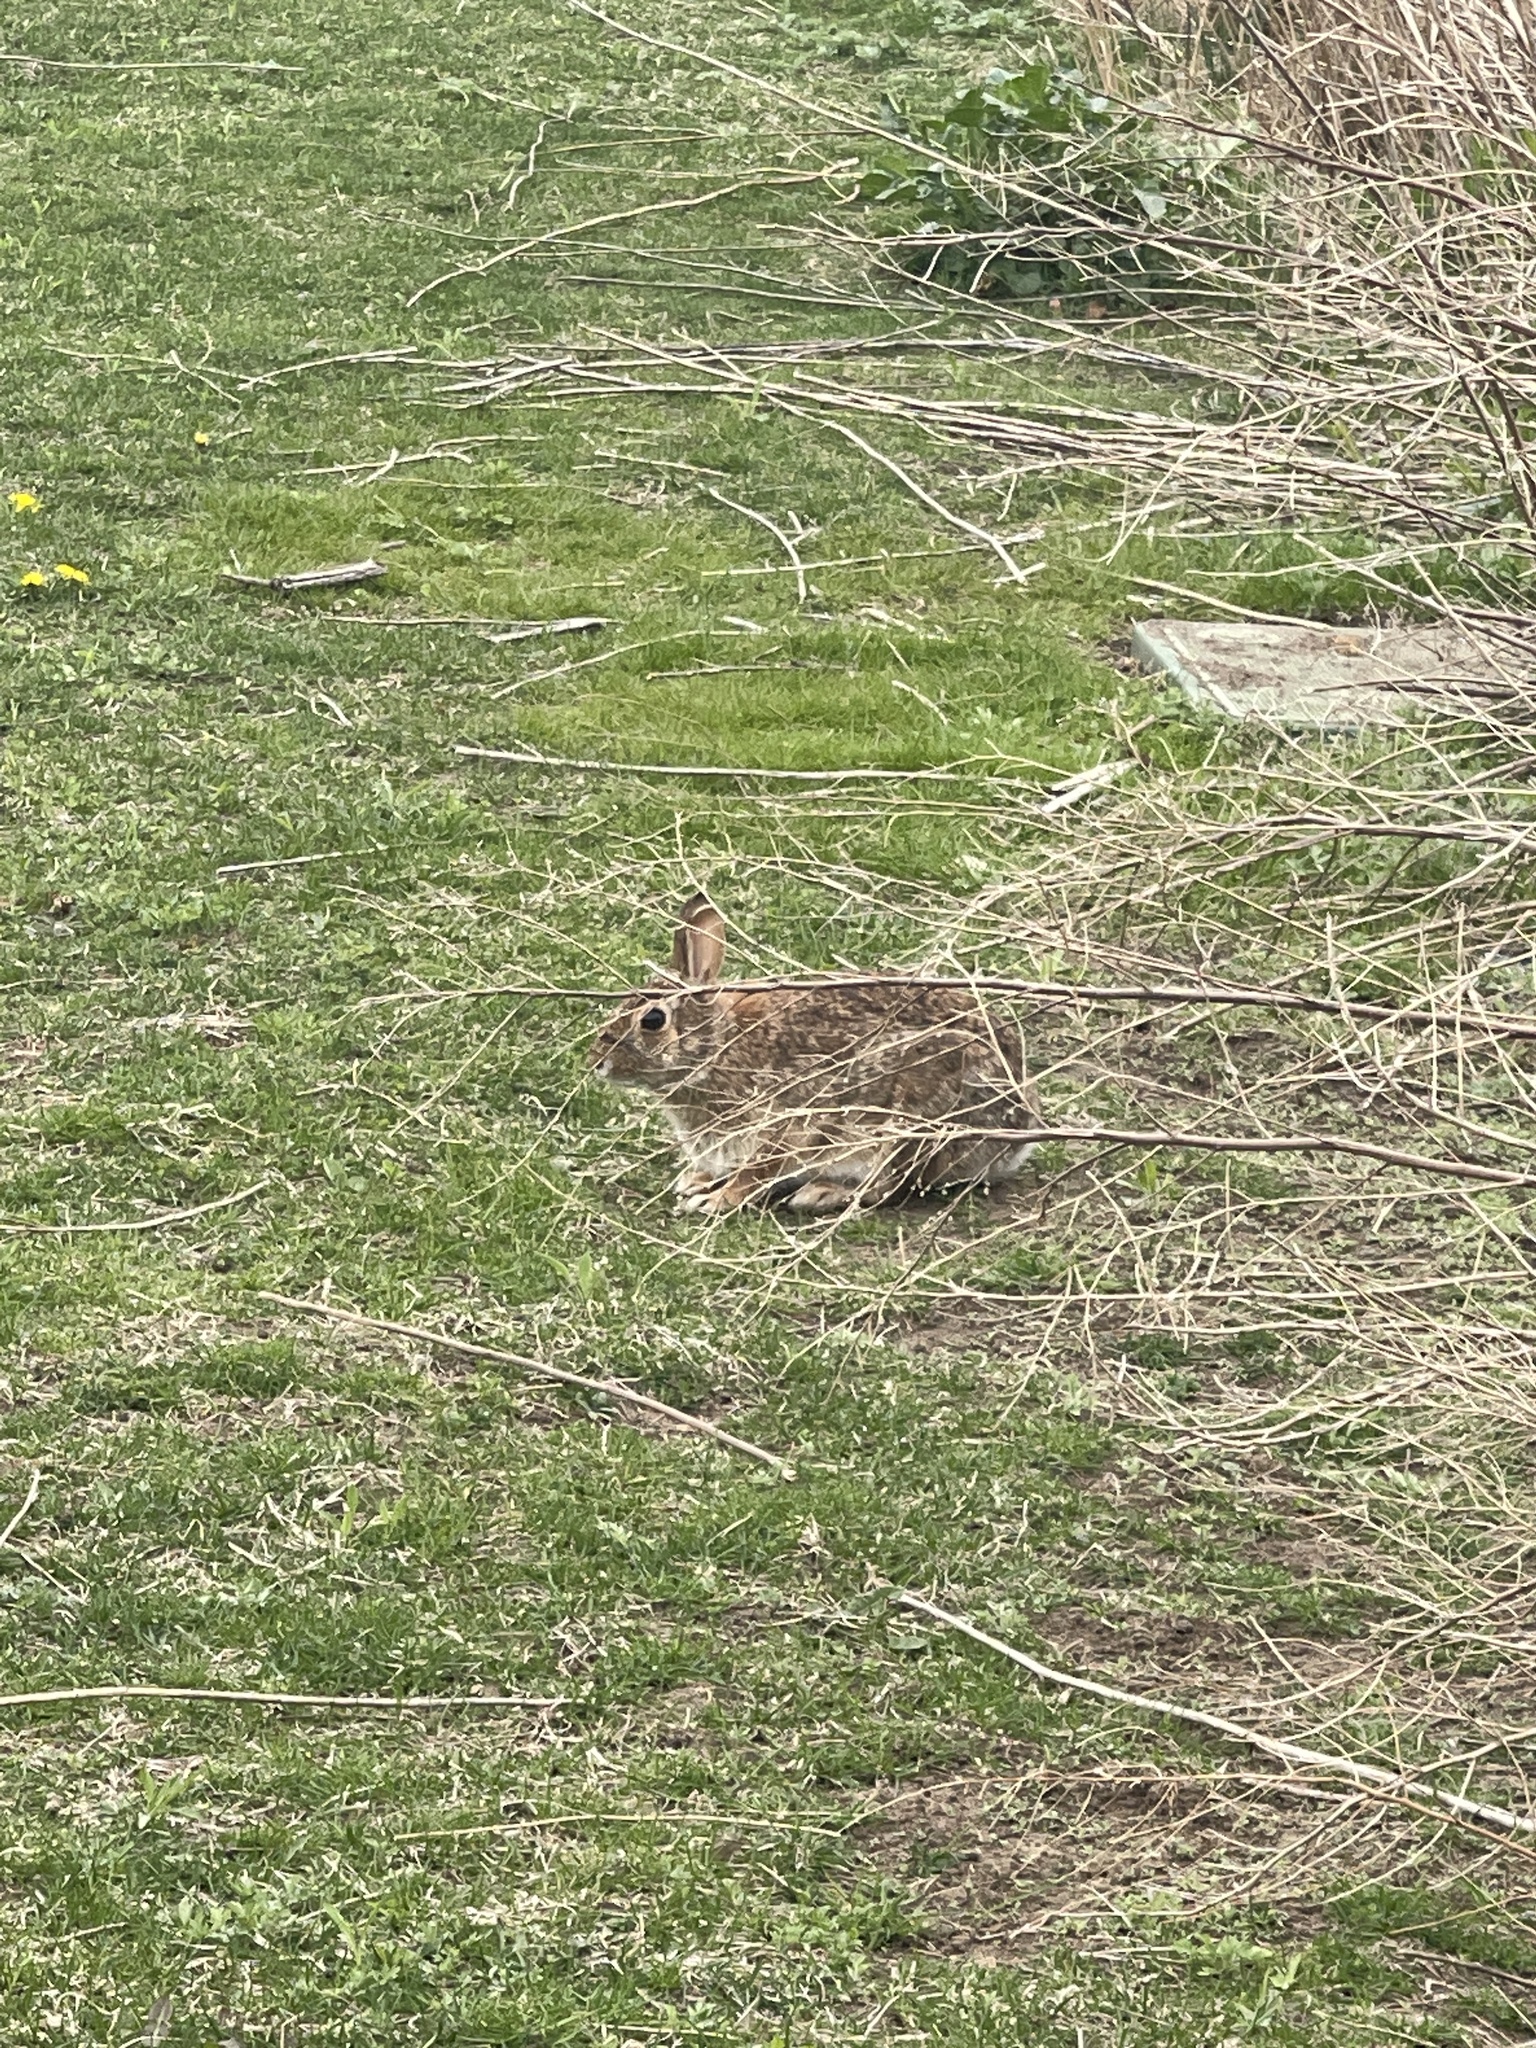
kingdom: Animalia
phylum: Chordata
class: Mammalia
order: Lagomorpha
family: Leporidae
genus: Sylvilagus
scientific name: Sylvilagus floridanus
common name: Eastern cottontail
